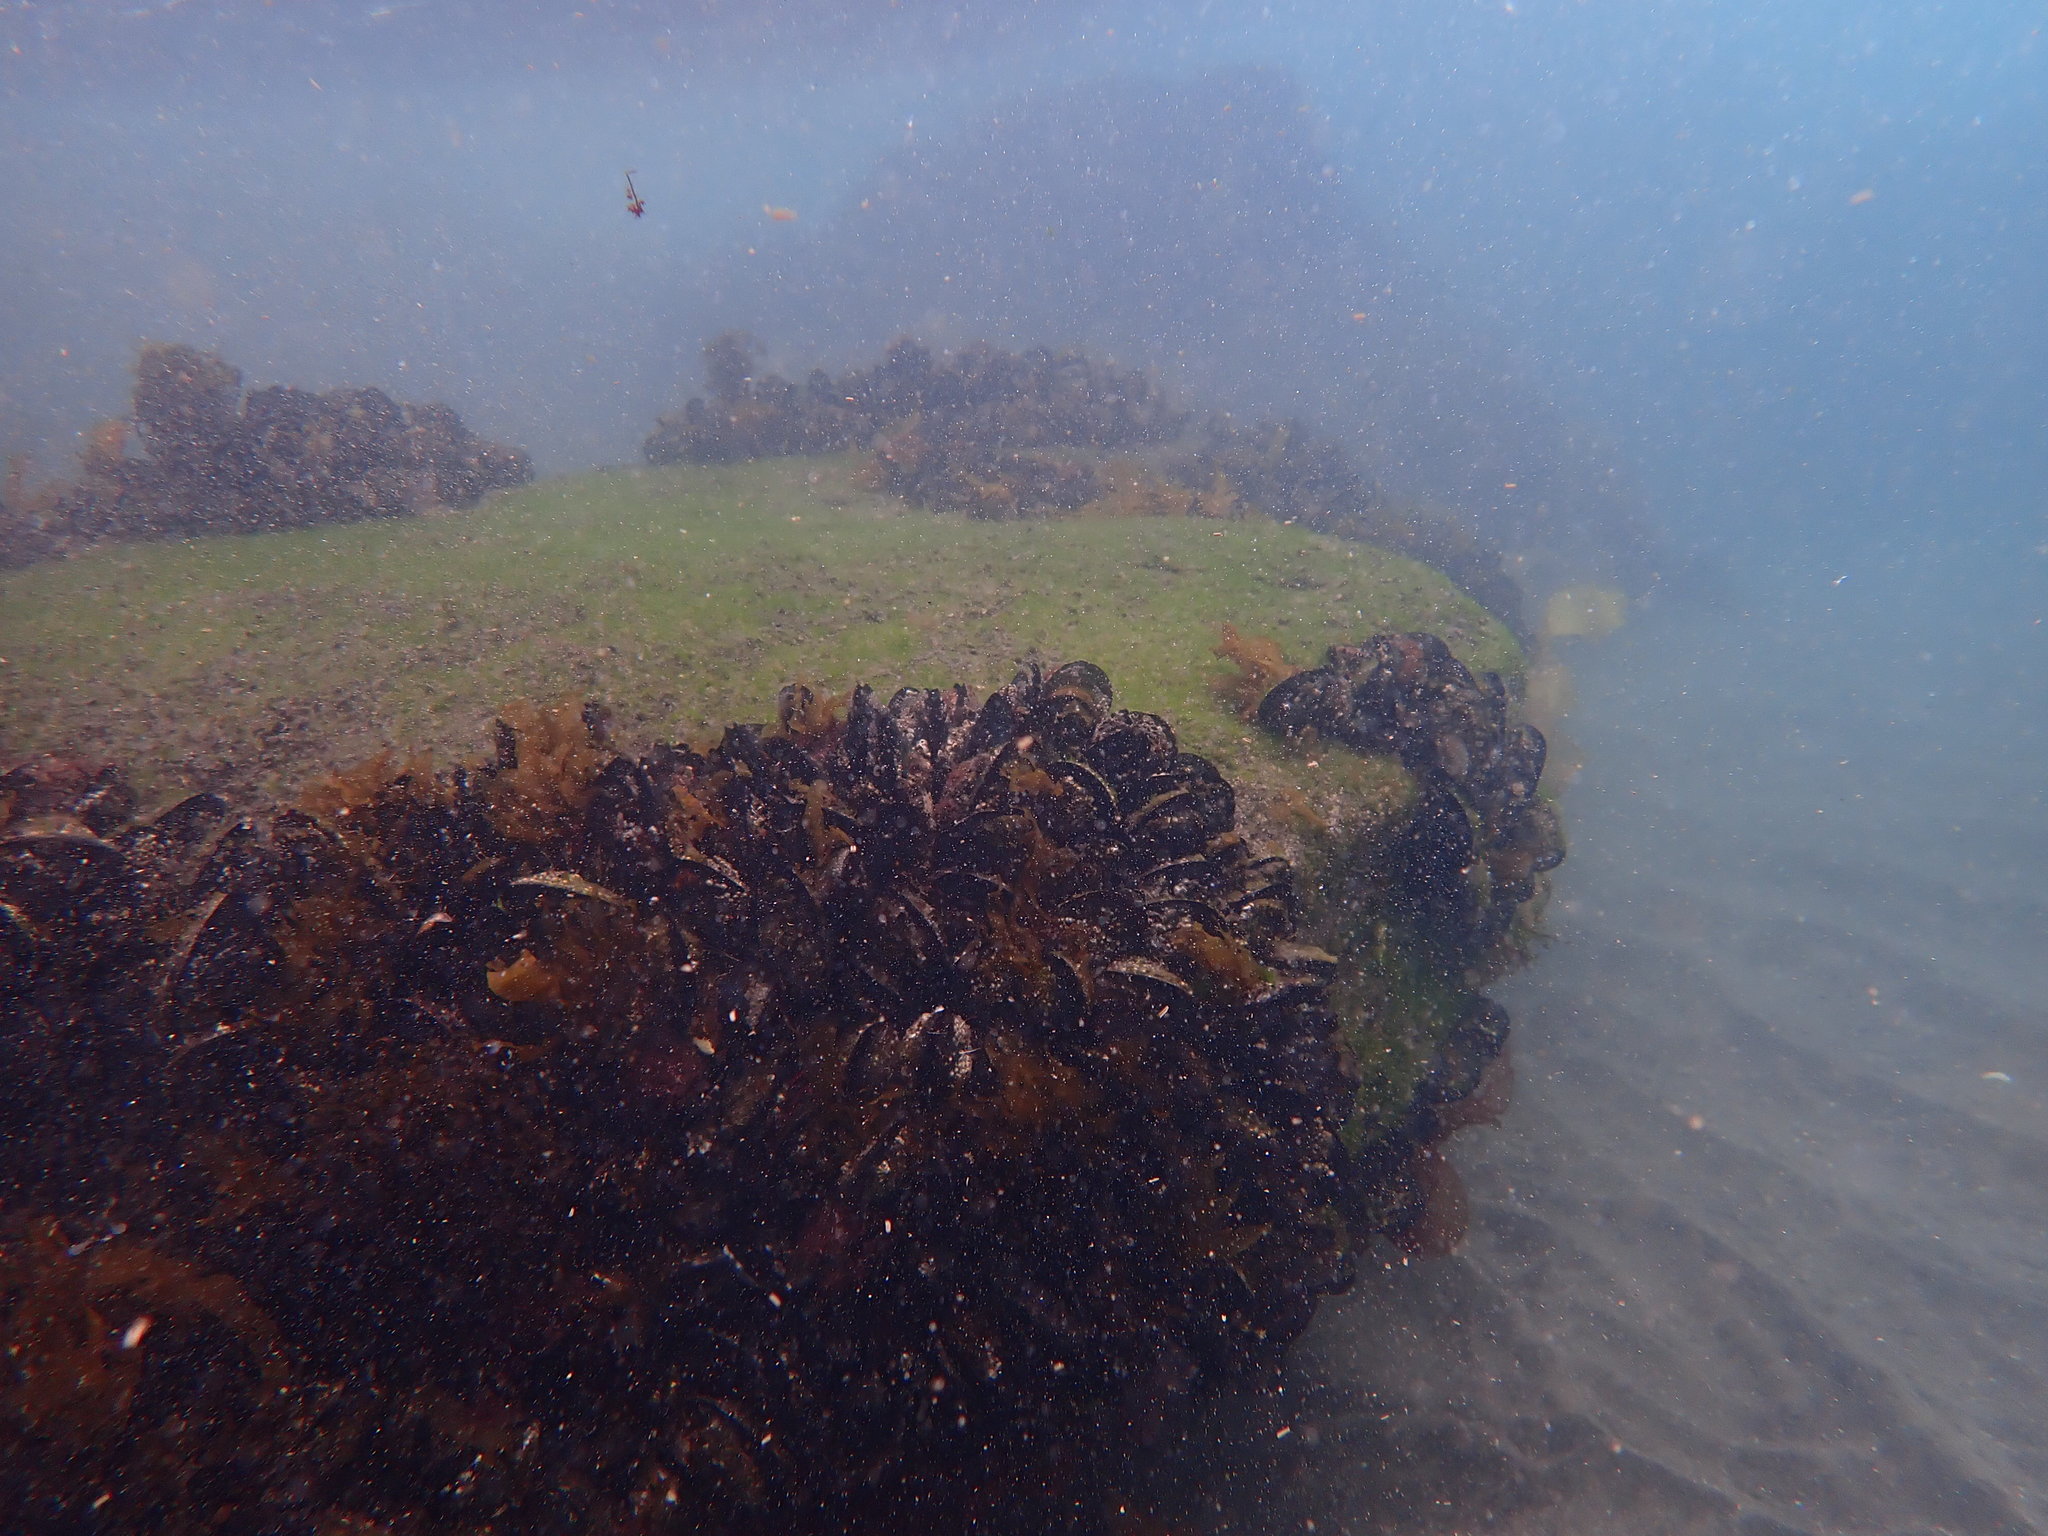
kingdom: Animalia
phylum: Mollusca
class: Bivalvia
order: Mytilida
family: Mytilidae
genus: Perna
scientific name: Perna canaliculus
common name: New zealand greenshelltm
